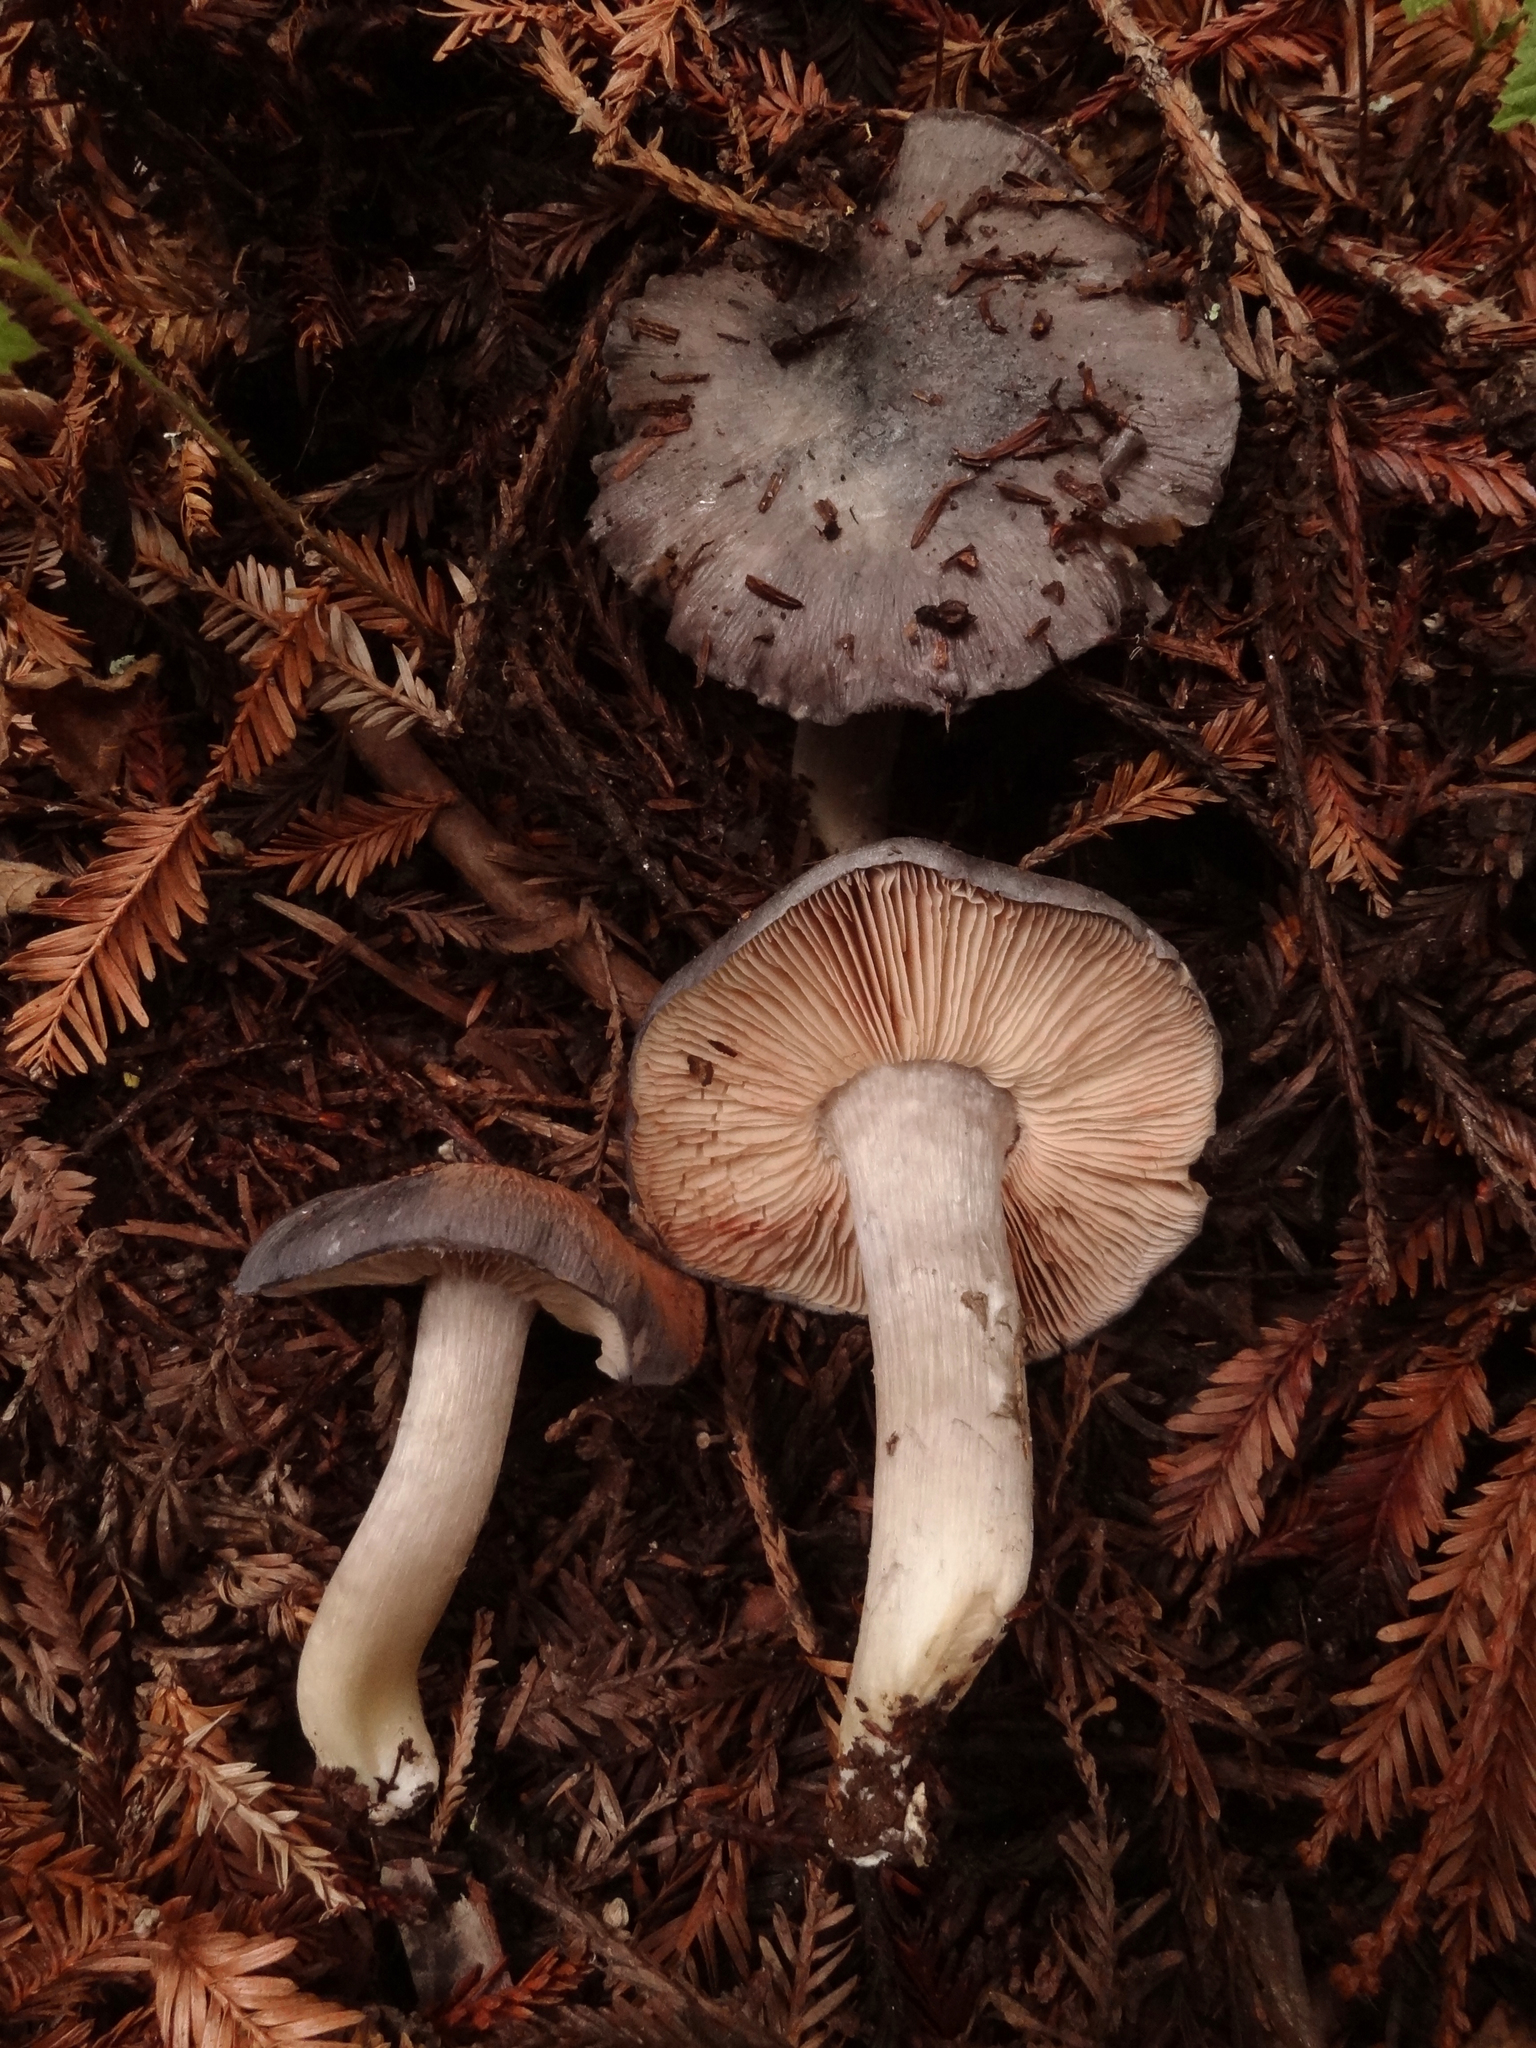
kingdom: Fungi
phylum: Basidiomycota
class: Agaricomycetes
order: Agaricales
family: Entolomataceae
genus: Entoloma
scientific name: Entoloma medianox
